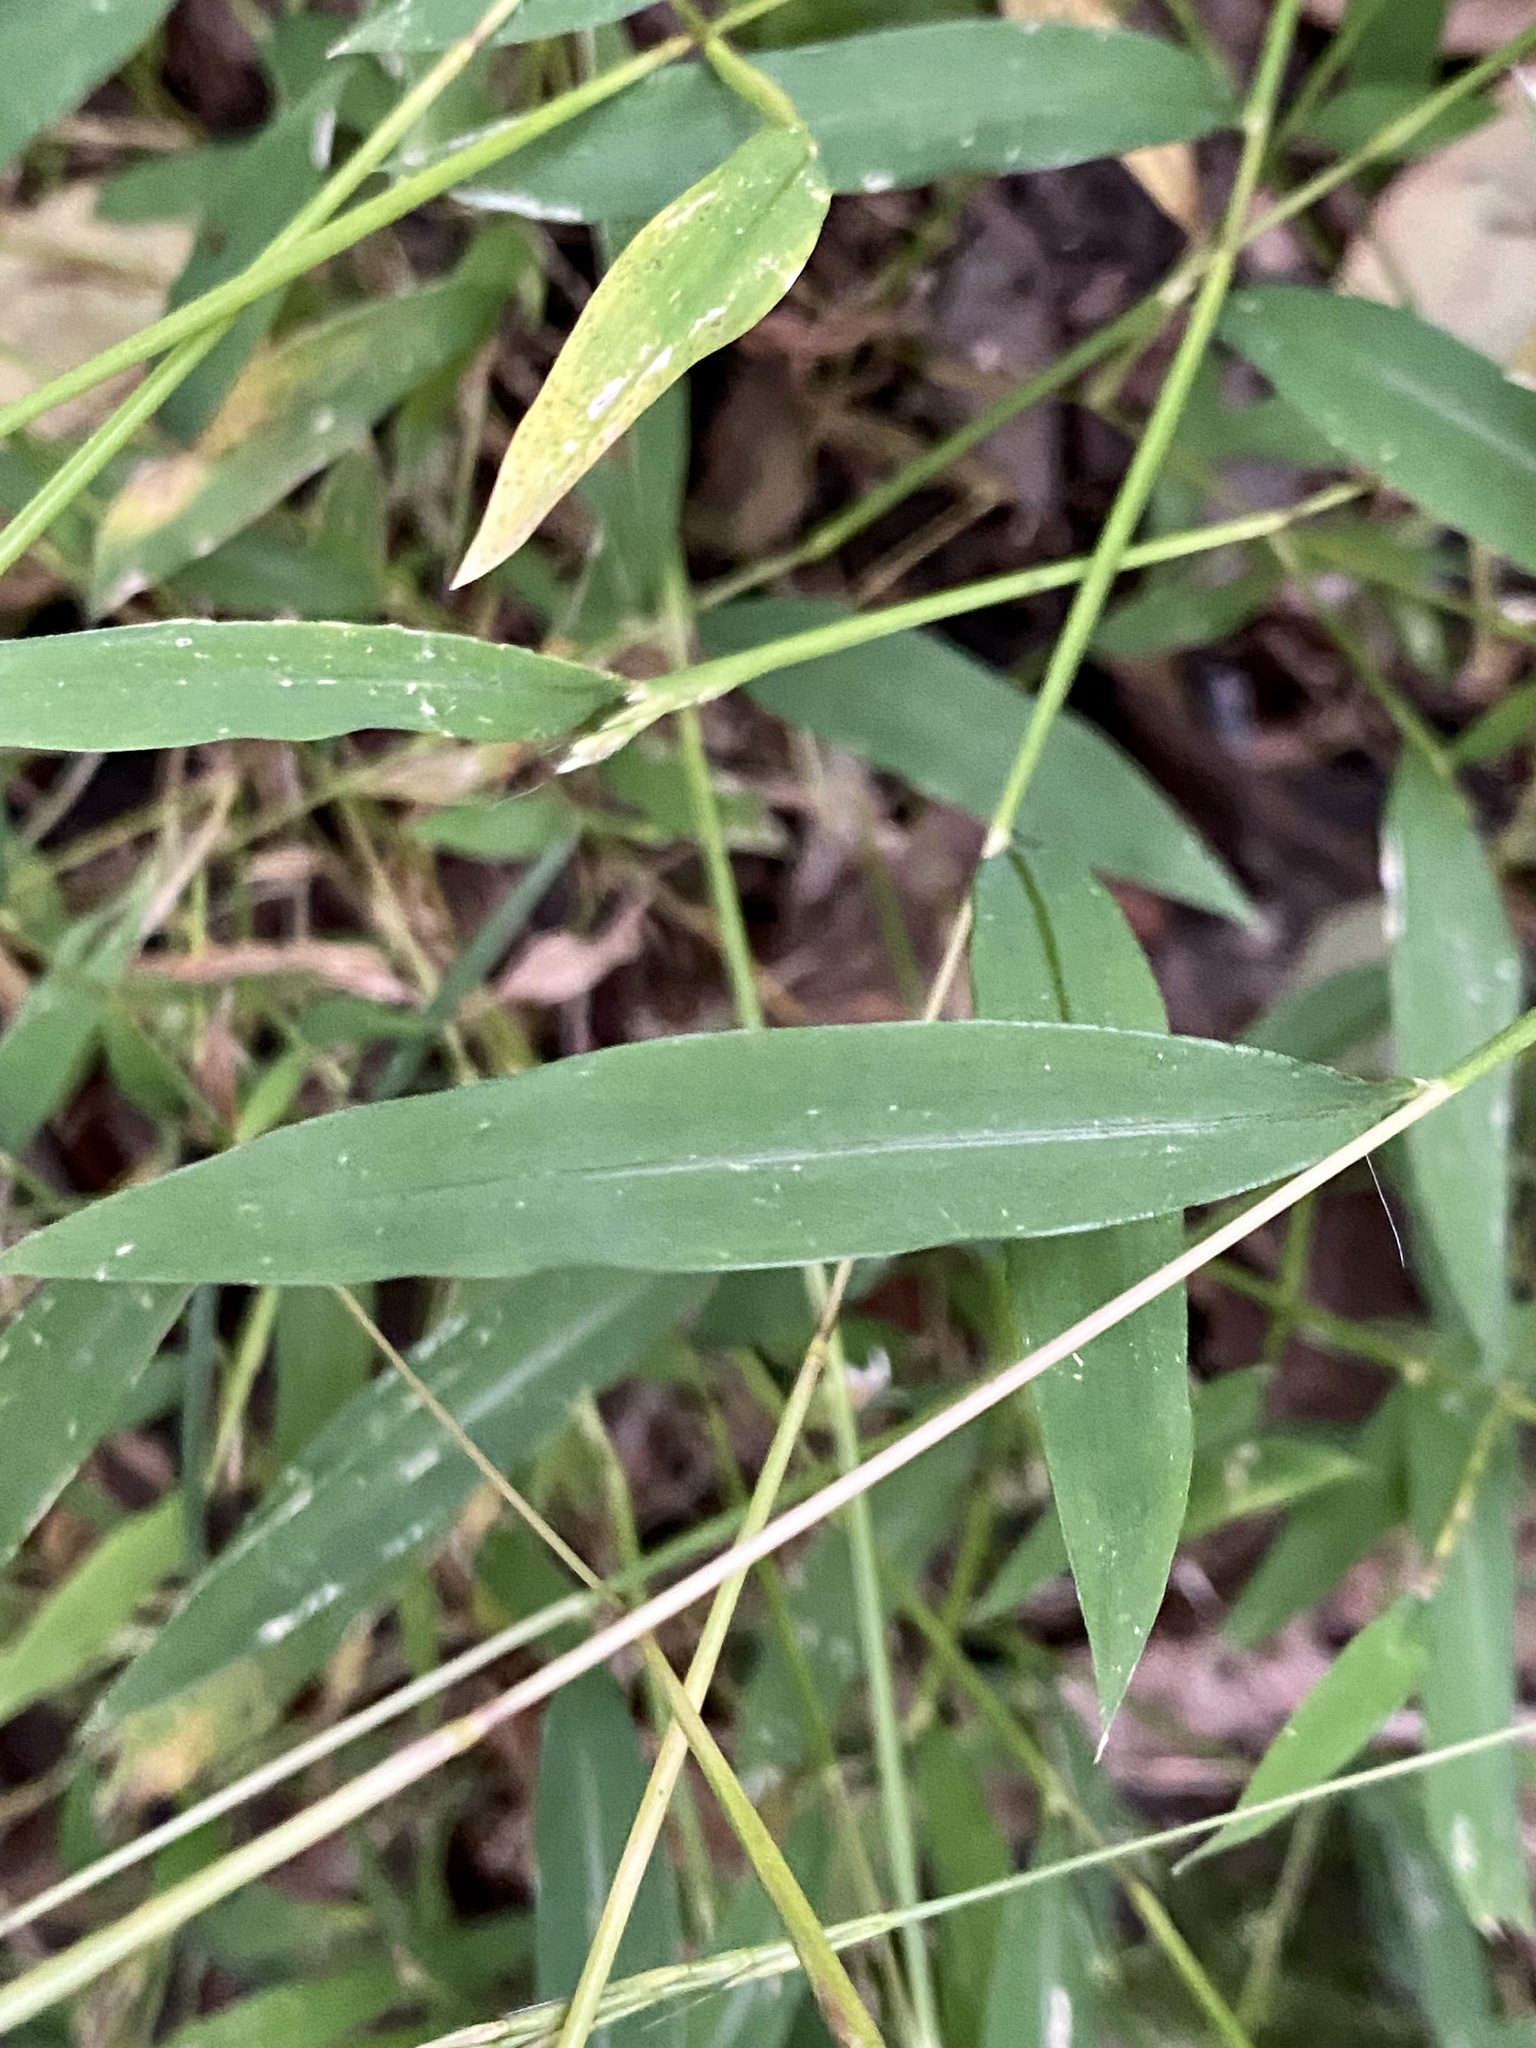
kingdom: Plantae
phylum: Tracheophyta
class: Liliopsida
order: Poales
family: Poaceae
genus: Microstegium
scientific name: Microstegium vimineum
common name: Japanese stiltgrass
